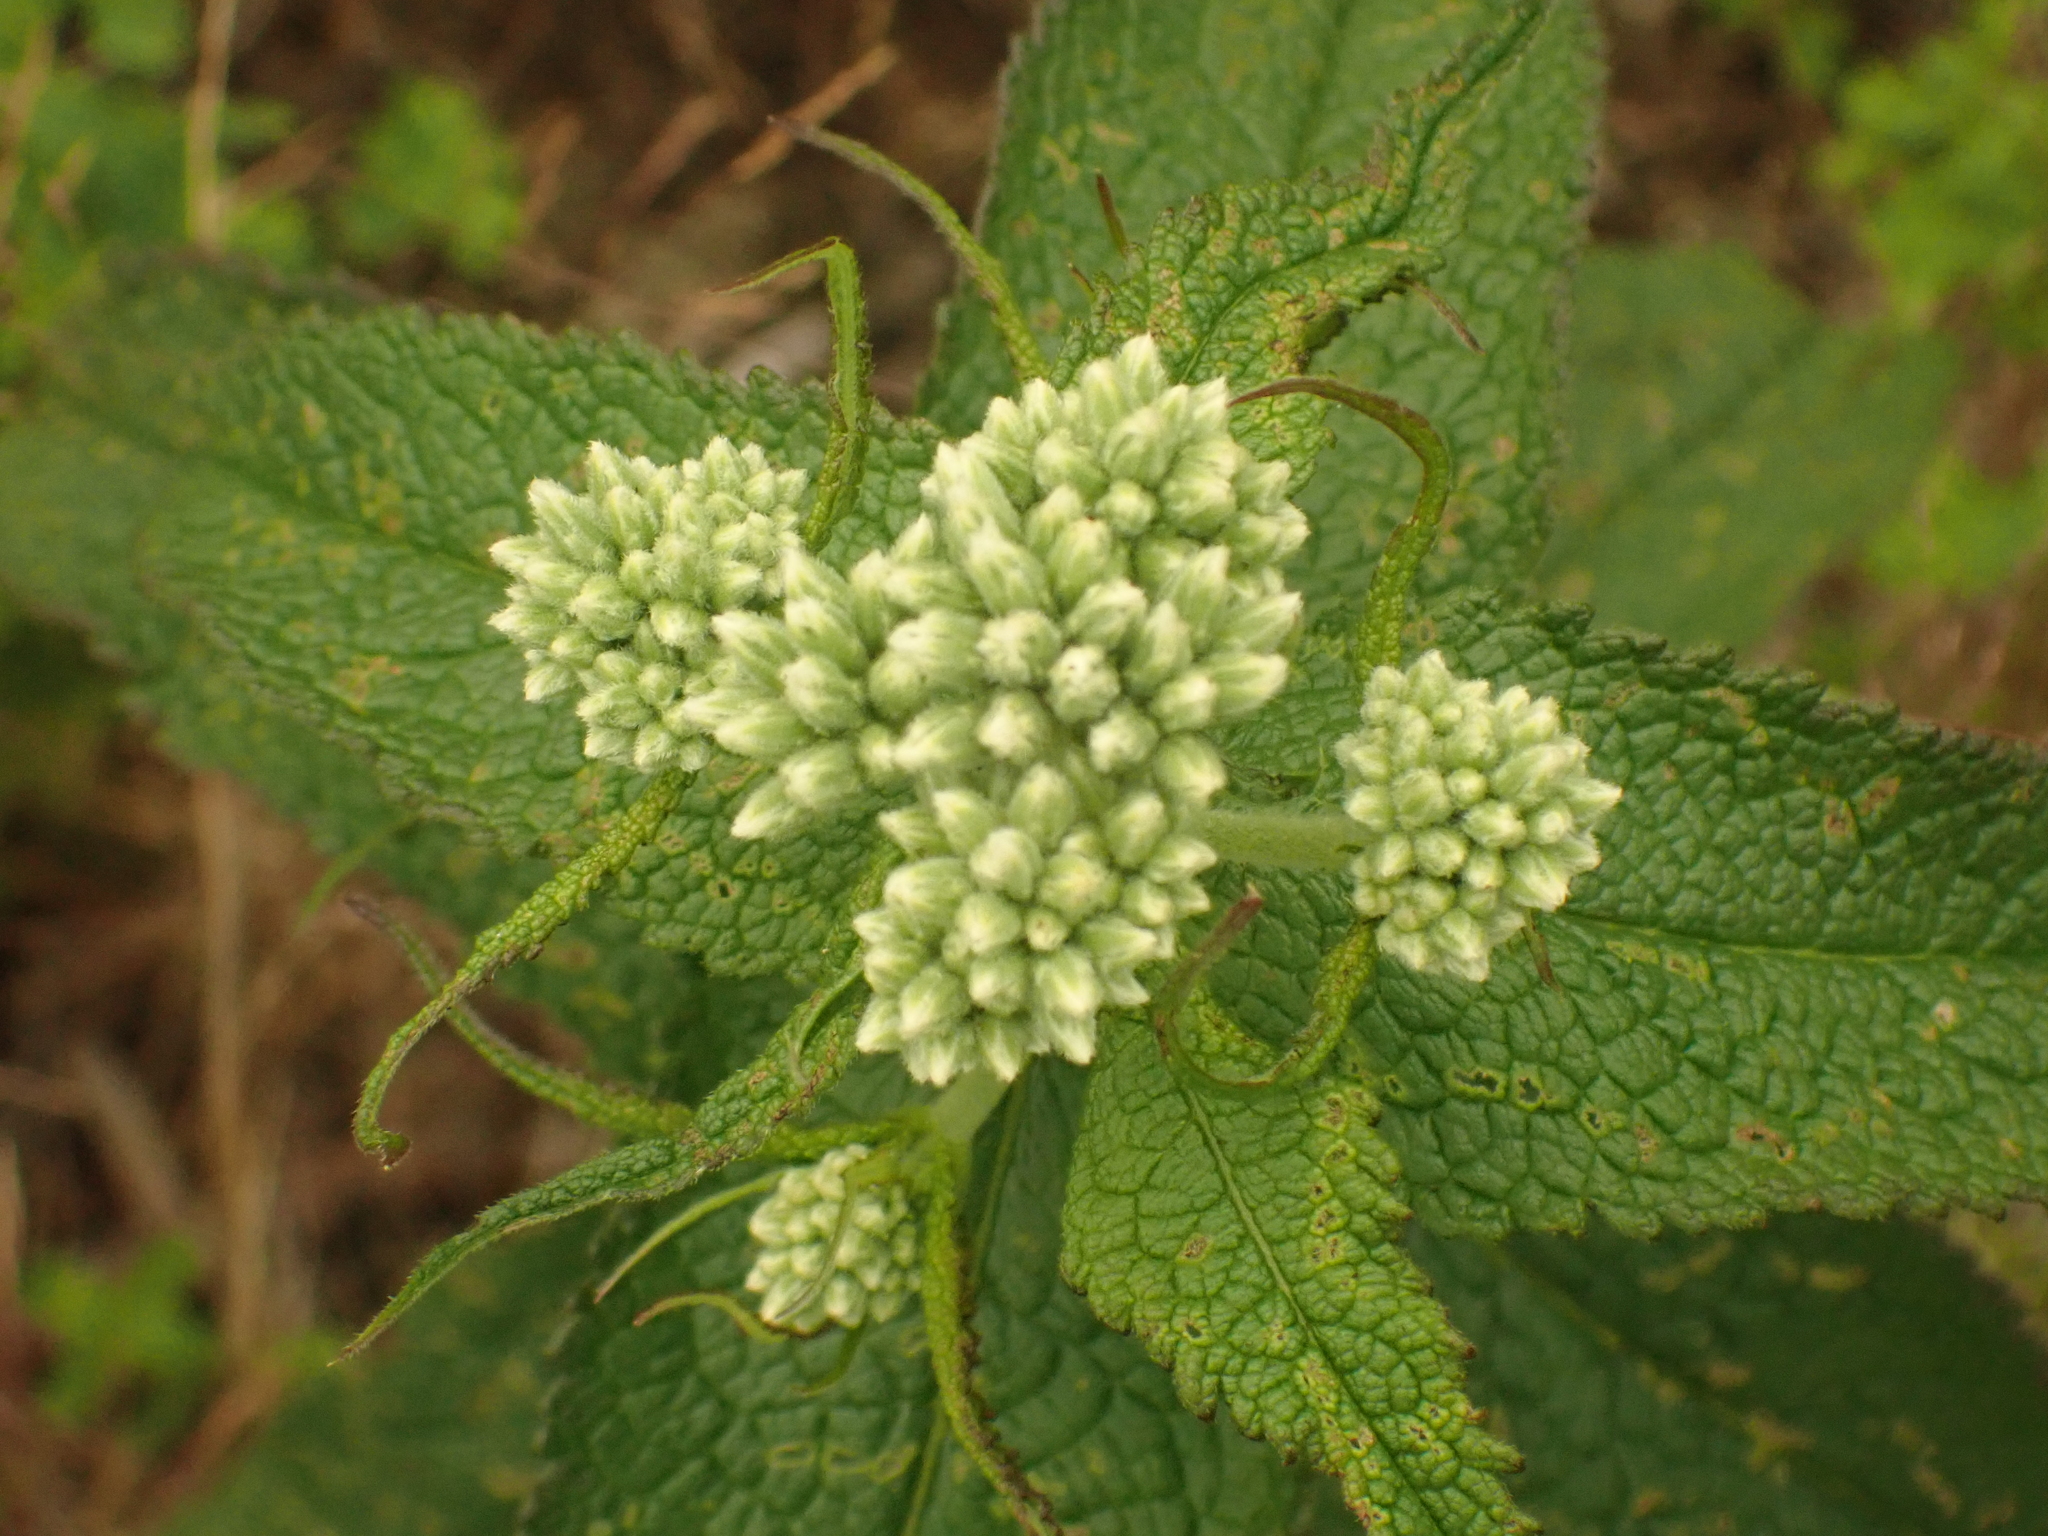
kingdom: Plantae
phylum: Tracheophyta
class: Magnoliopsida
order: Asterales
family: Asteraceae
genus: Eupatorium
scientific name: Eupatorium perfoliatum
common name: Boneset
